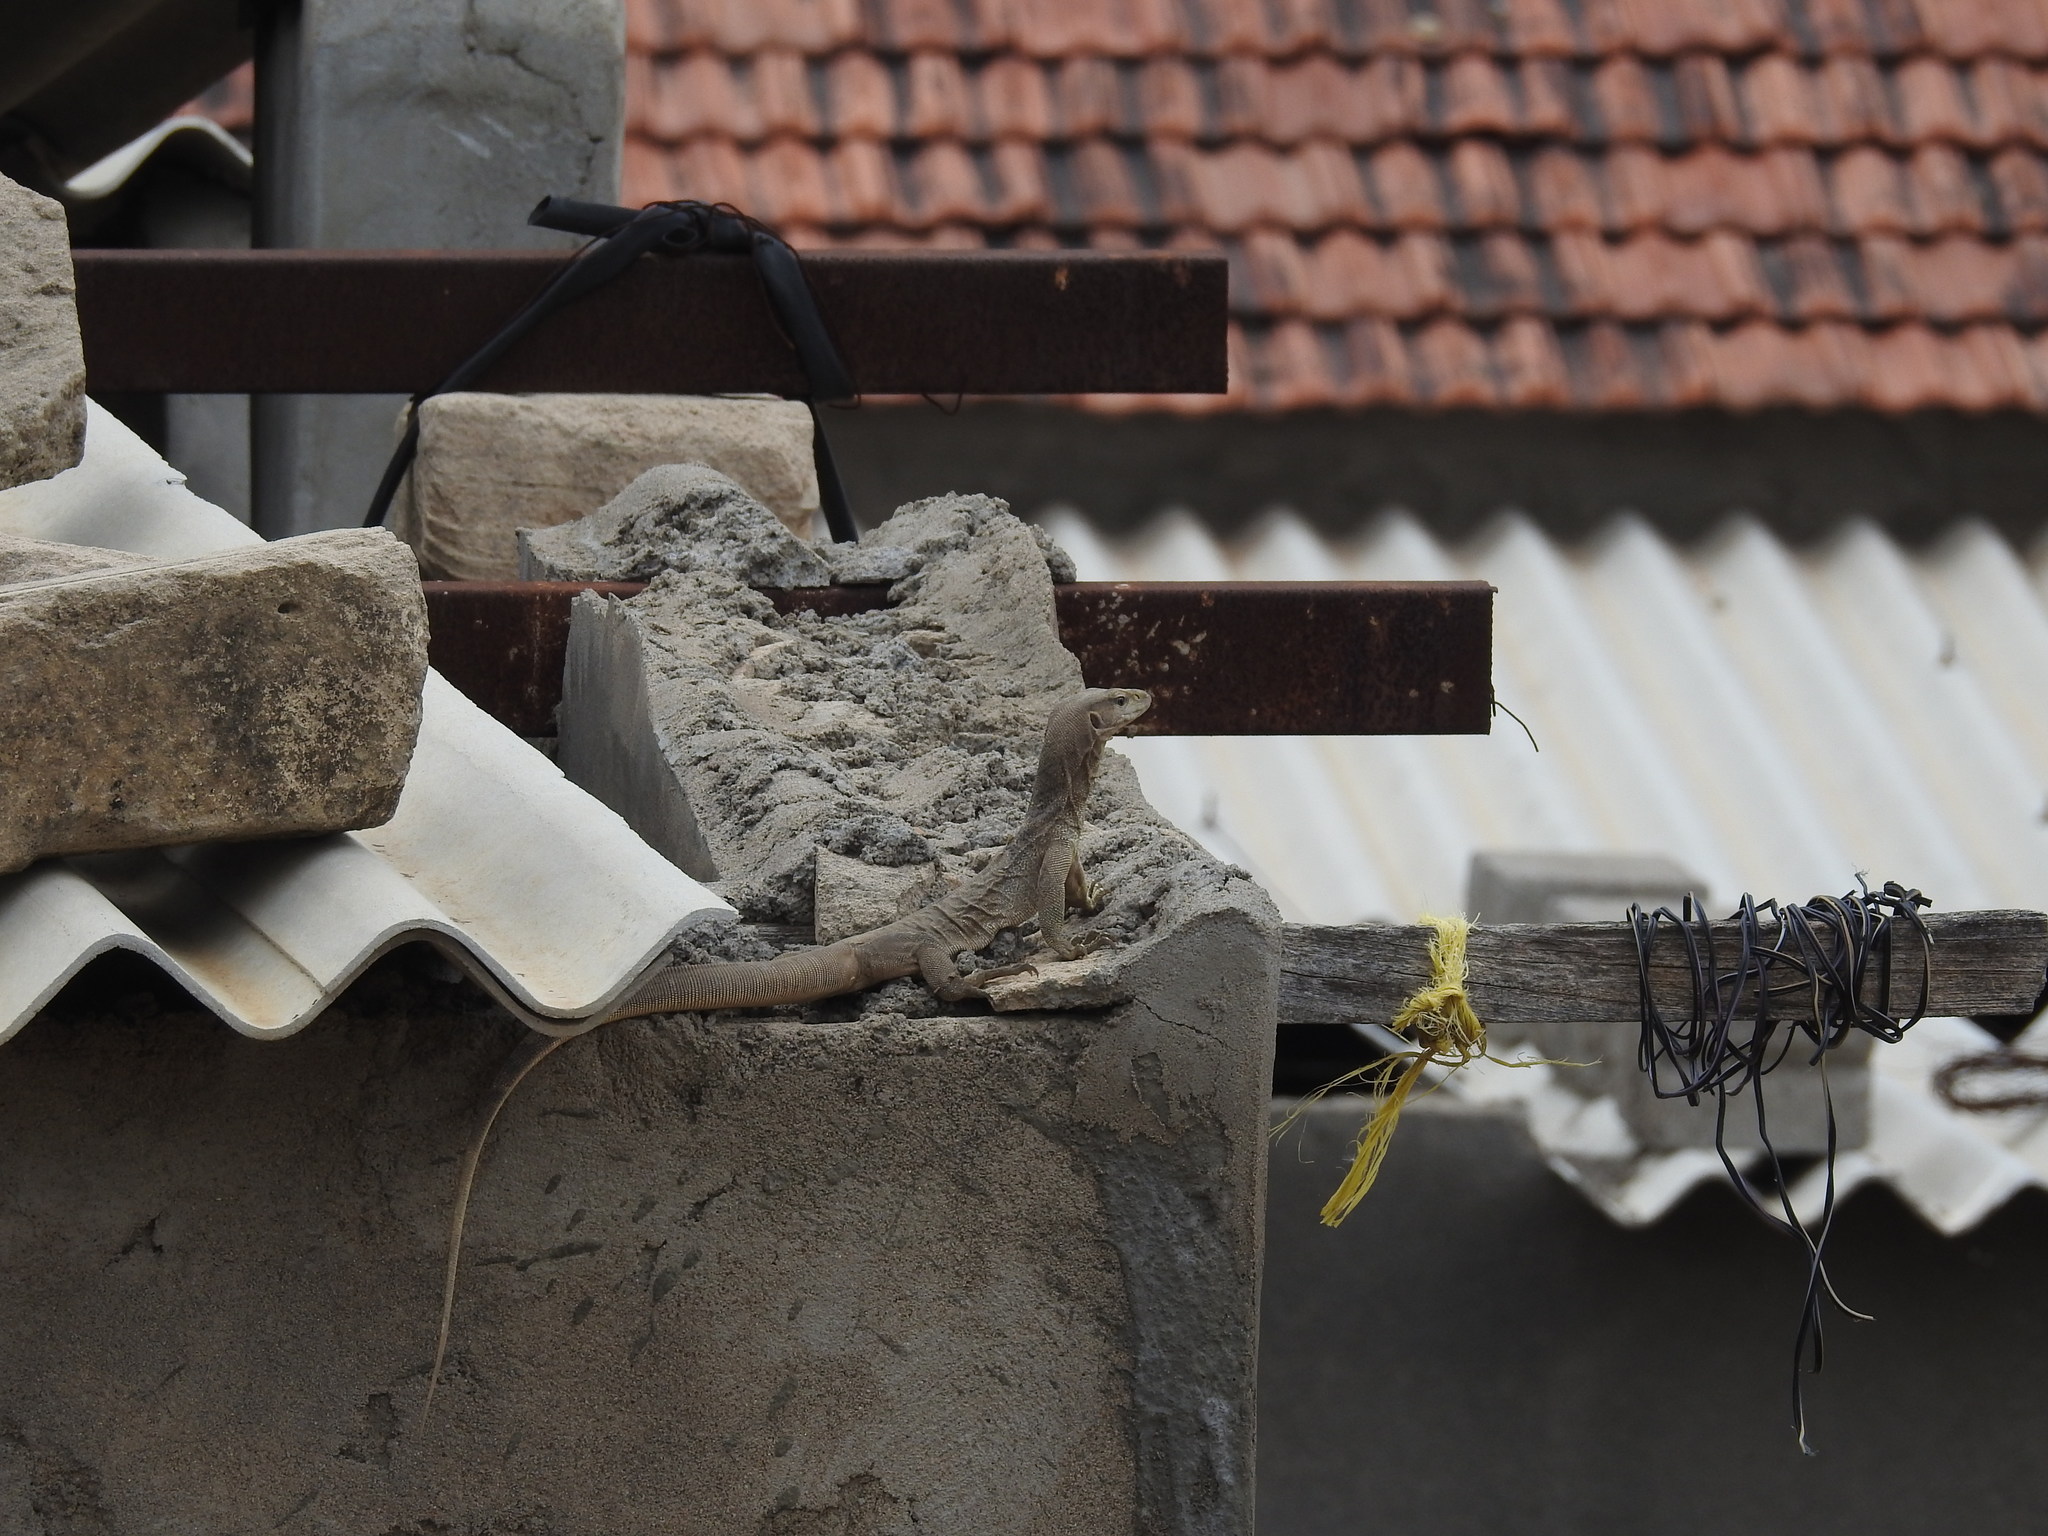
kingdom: Animalia
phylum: Chordata
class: Squamata
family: Varanidae
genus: Varanus
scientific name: Varanus bengalensis
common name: Bengal monitor
